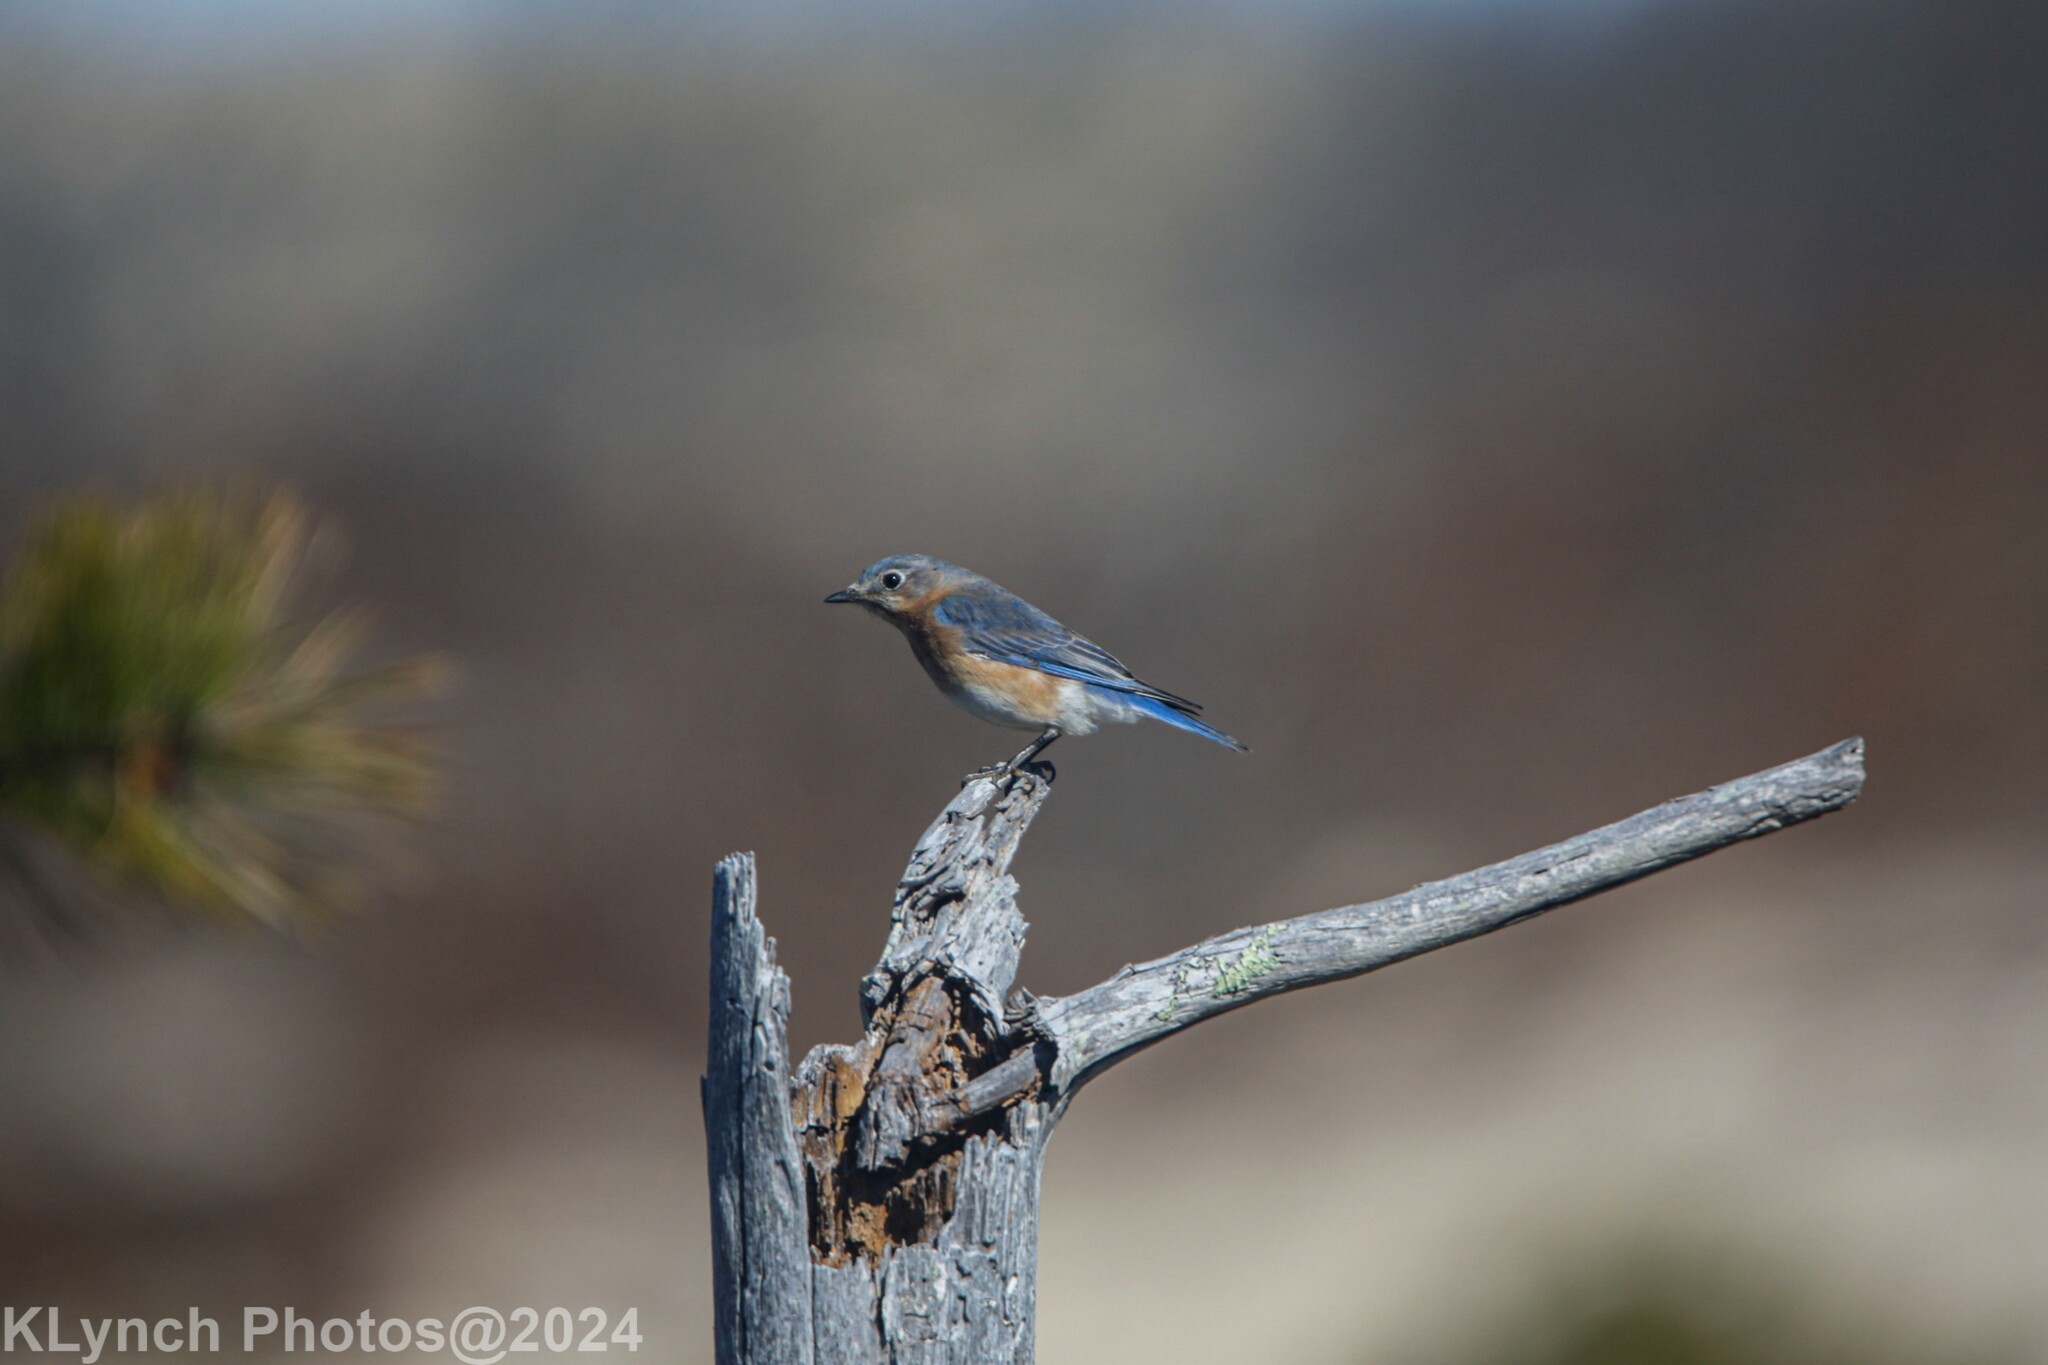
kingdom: Animalia
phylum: Chordata
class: Aves
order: Passeriformes
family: Turdidae
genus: Sialia
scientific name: Sialia sialis
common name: Eastern bluebird
